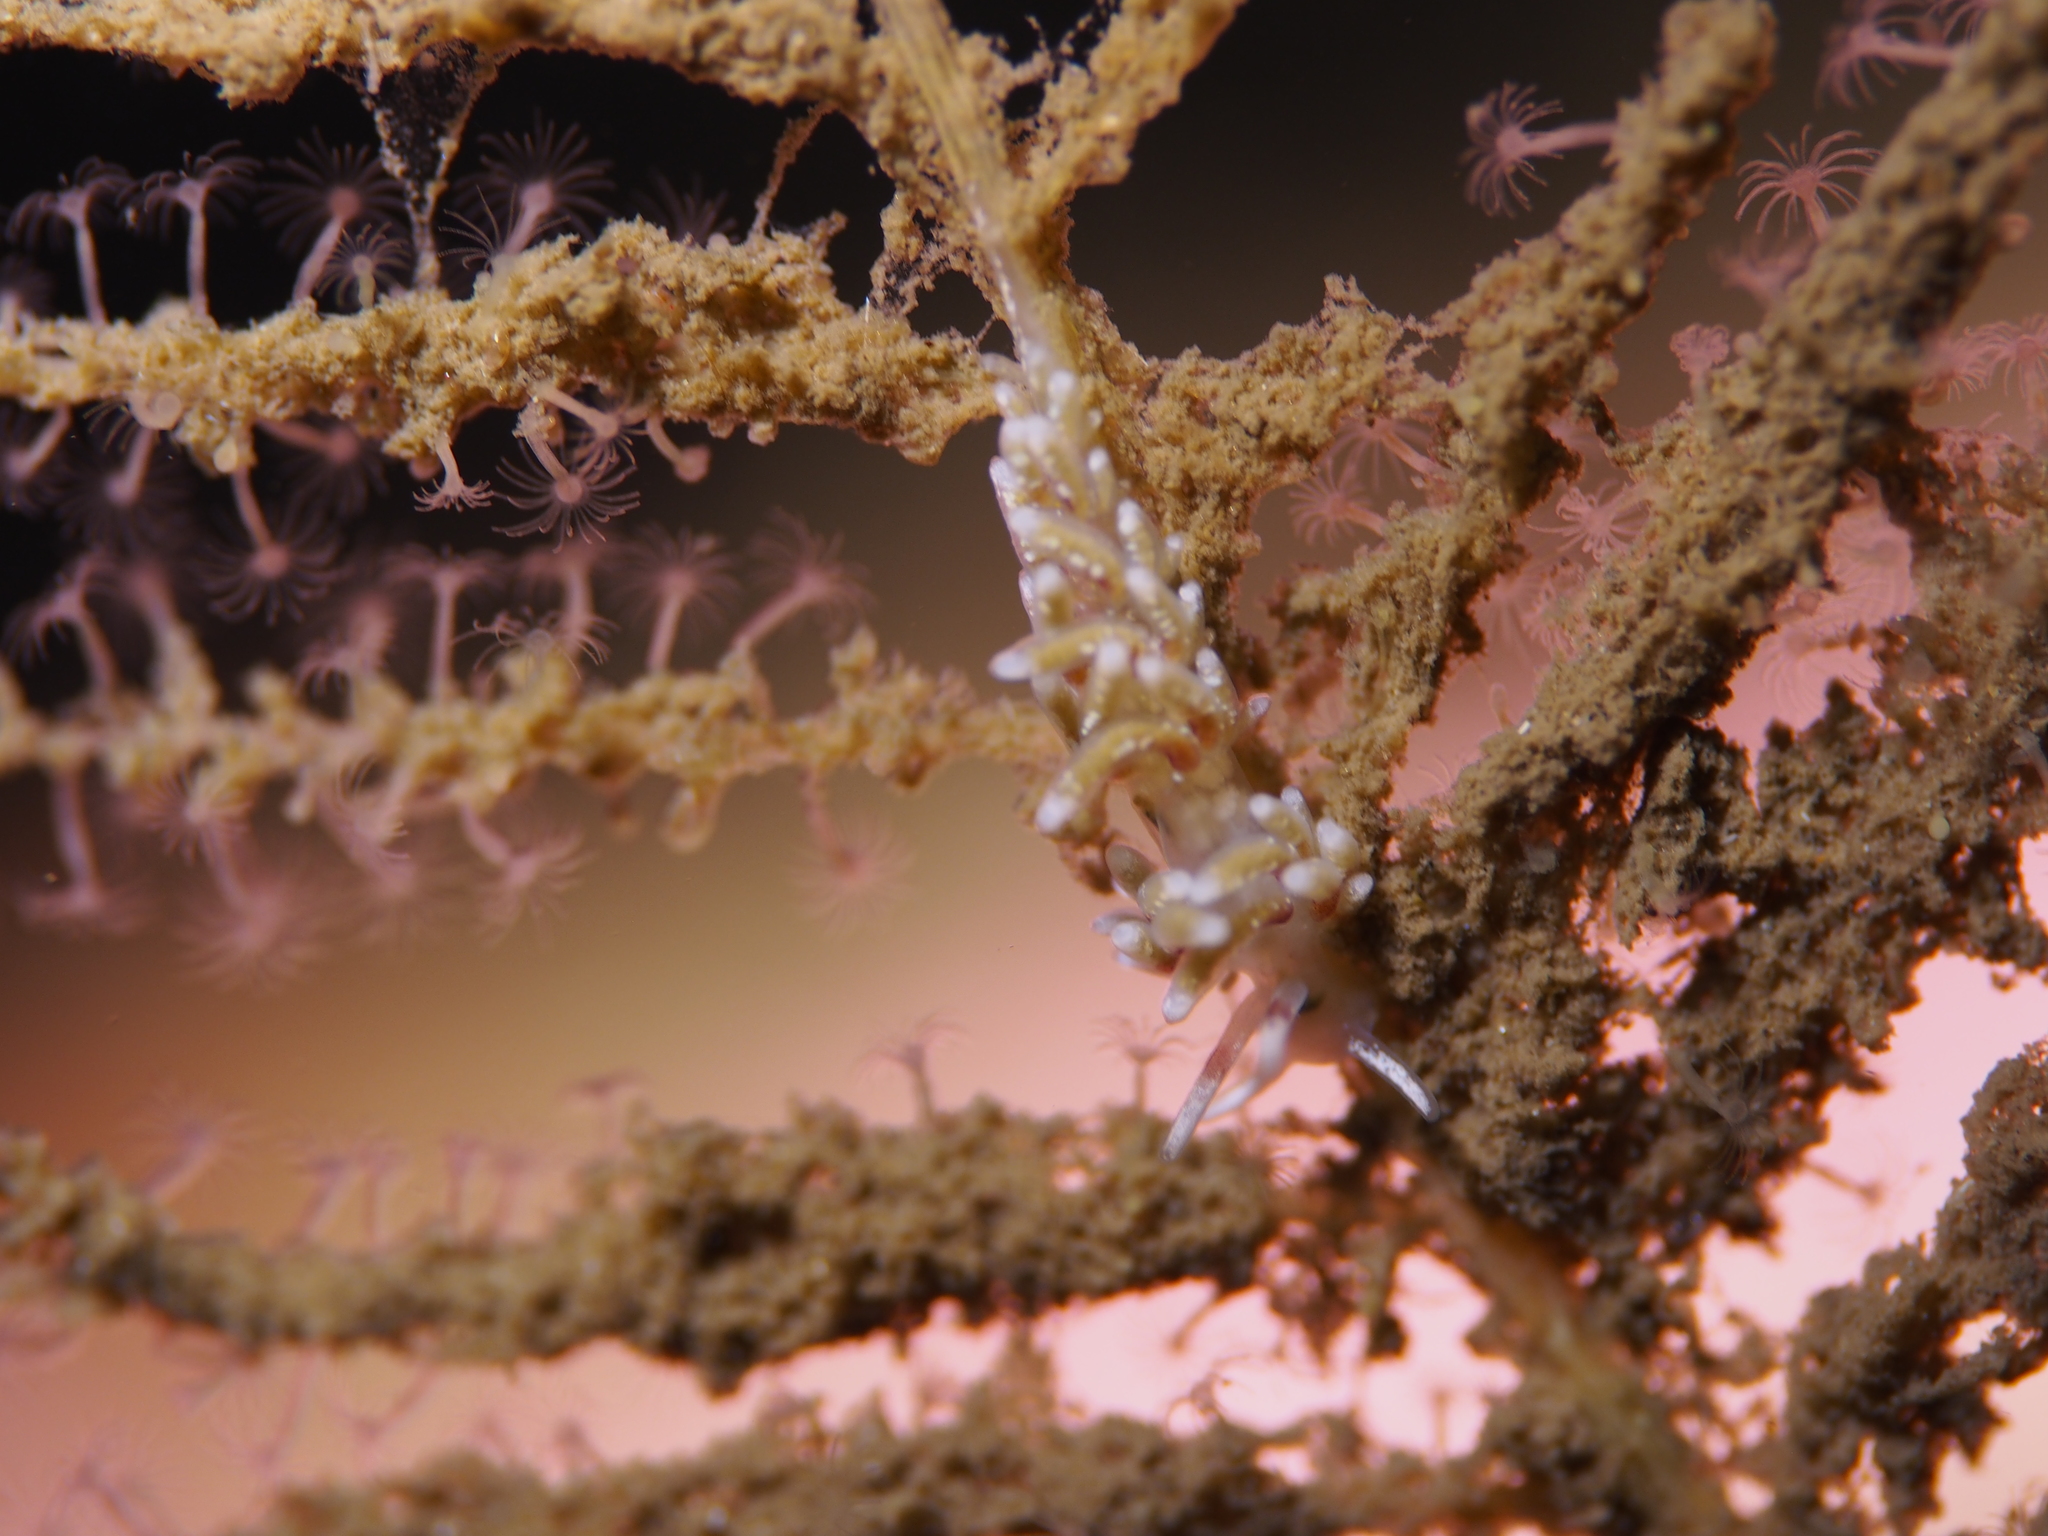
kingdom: Animalia
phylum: Mollusca
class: Gastropoda
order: Nudibranchia
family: Trinchesiidae
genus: Rubramoena
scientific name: Rubramoena rubescens
